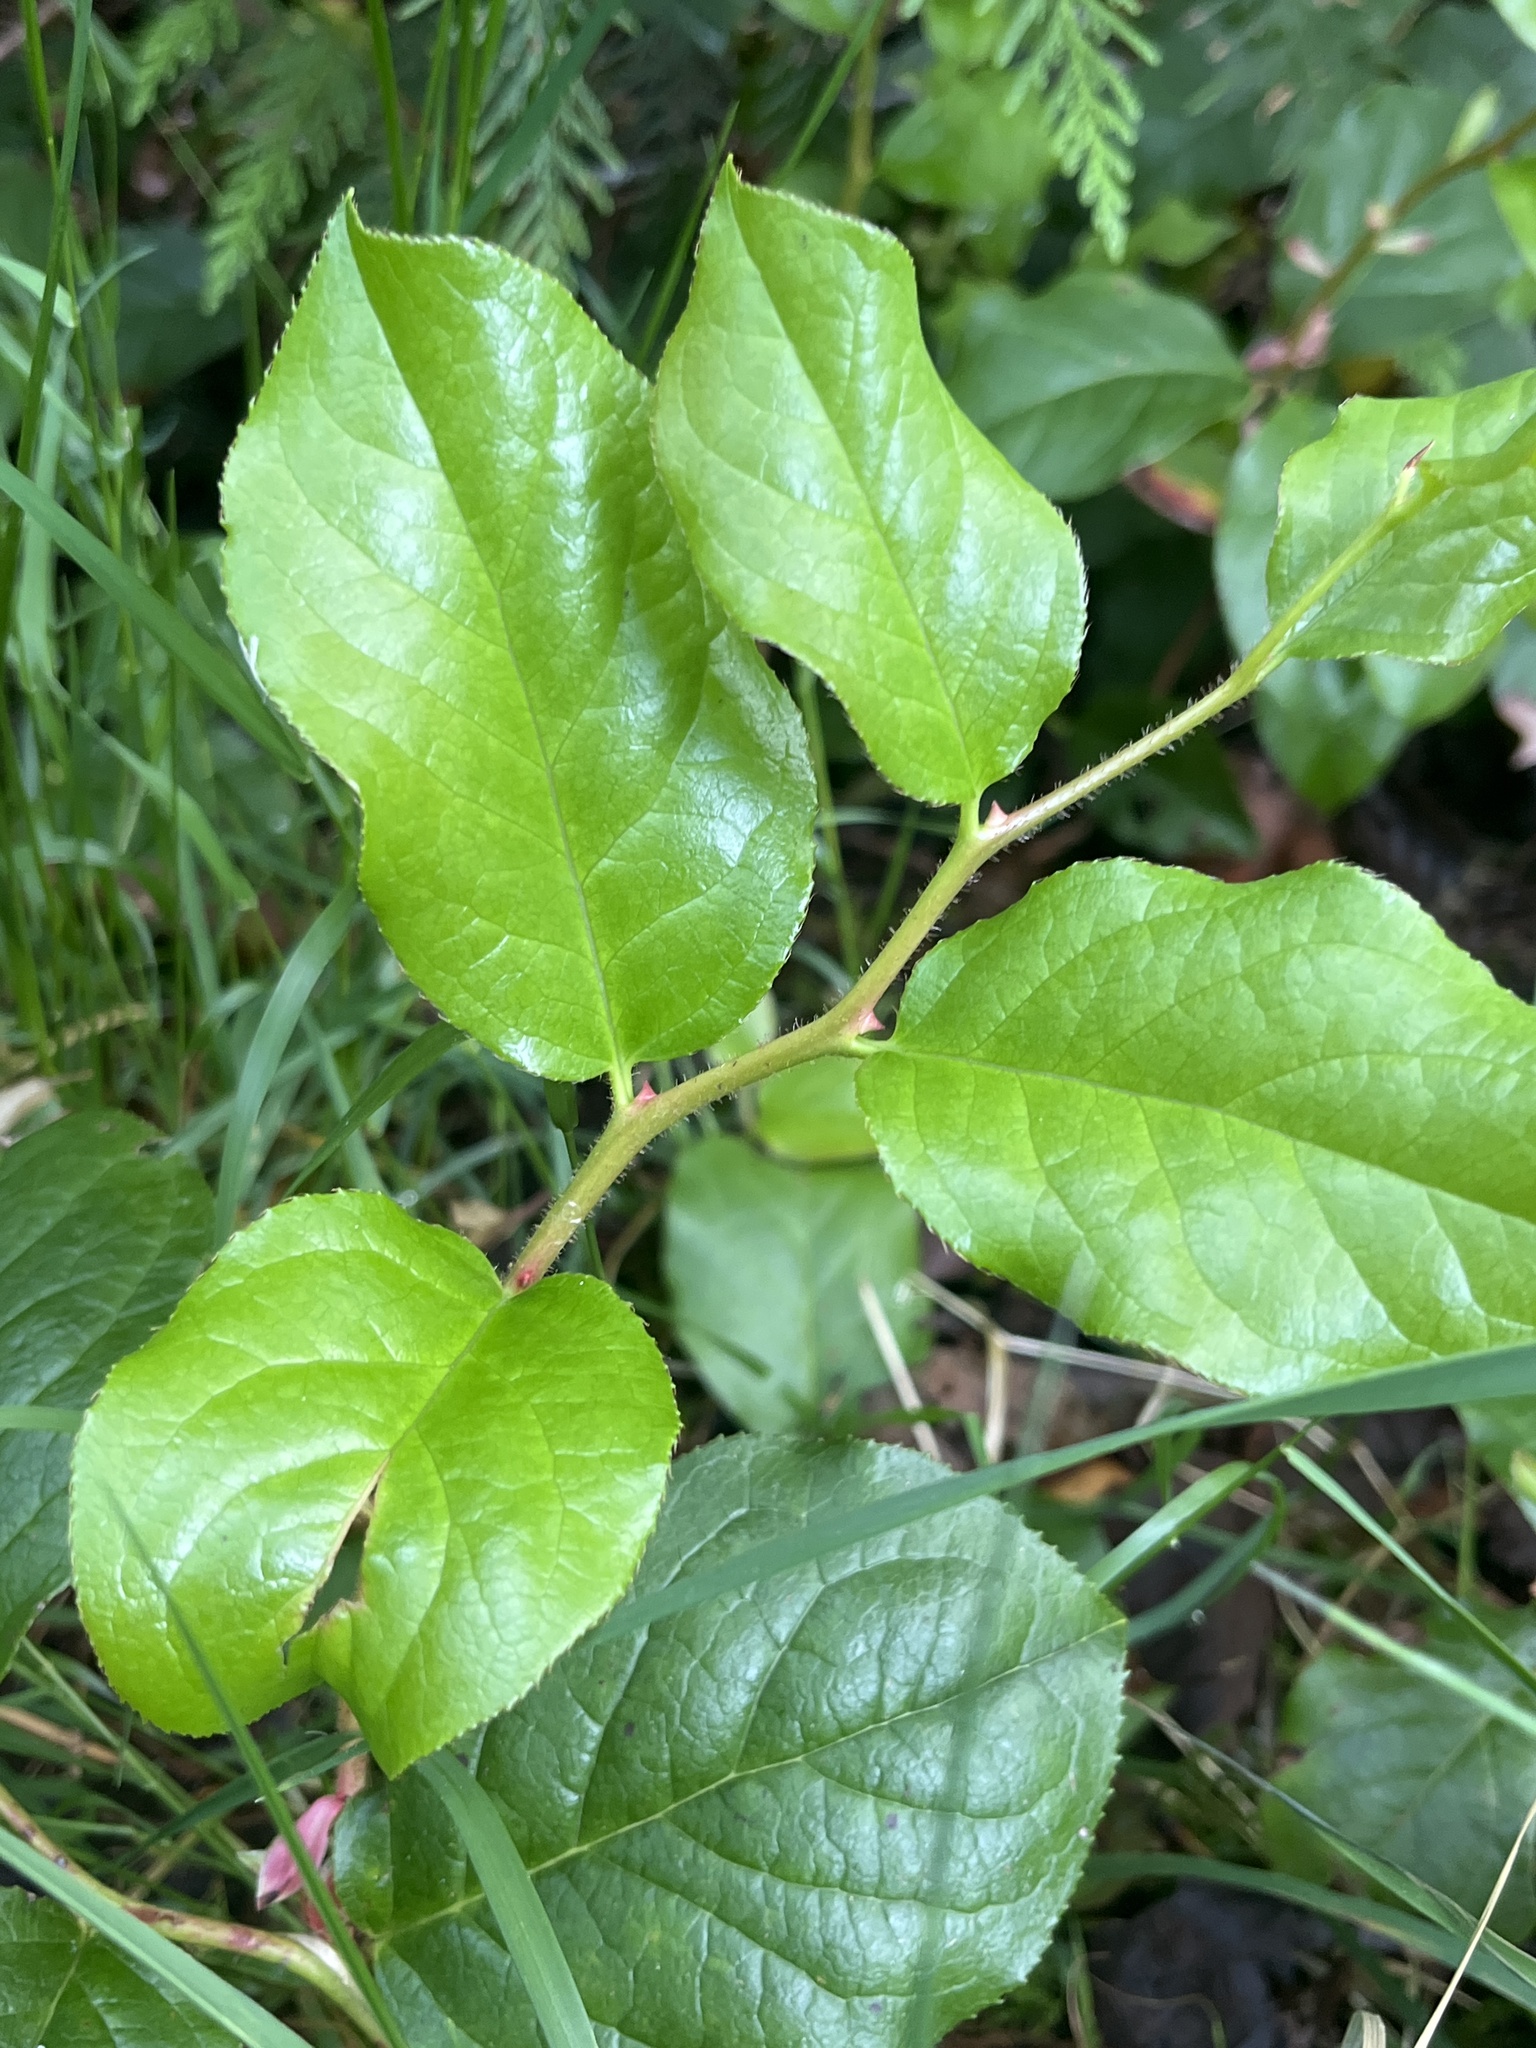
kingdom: Plantae
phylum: Tracheophyta
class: Magnoliopsida
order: Ericales
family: Ericaceae
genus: Gaultheria
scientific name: Gaultheria shallon
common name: Shallon
